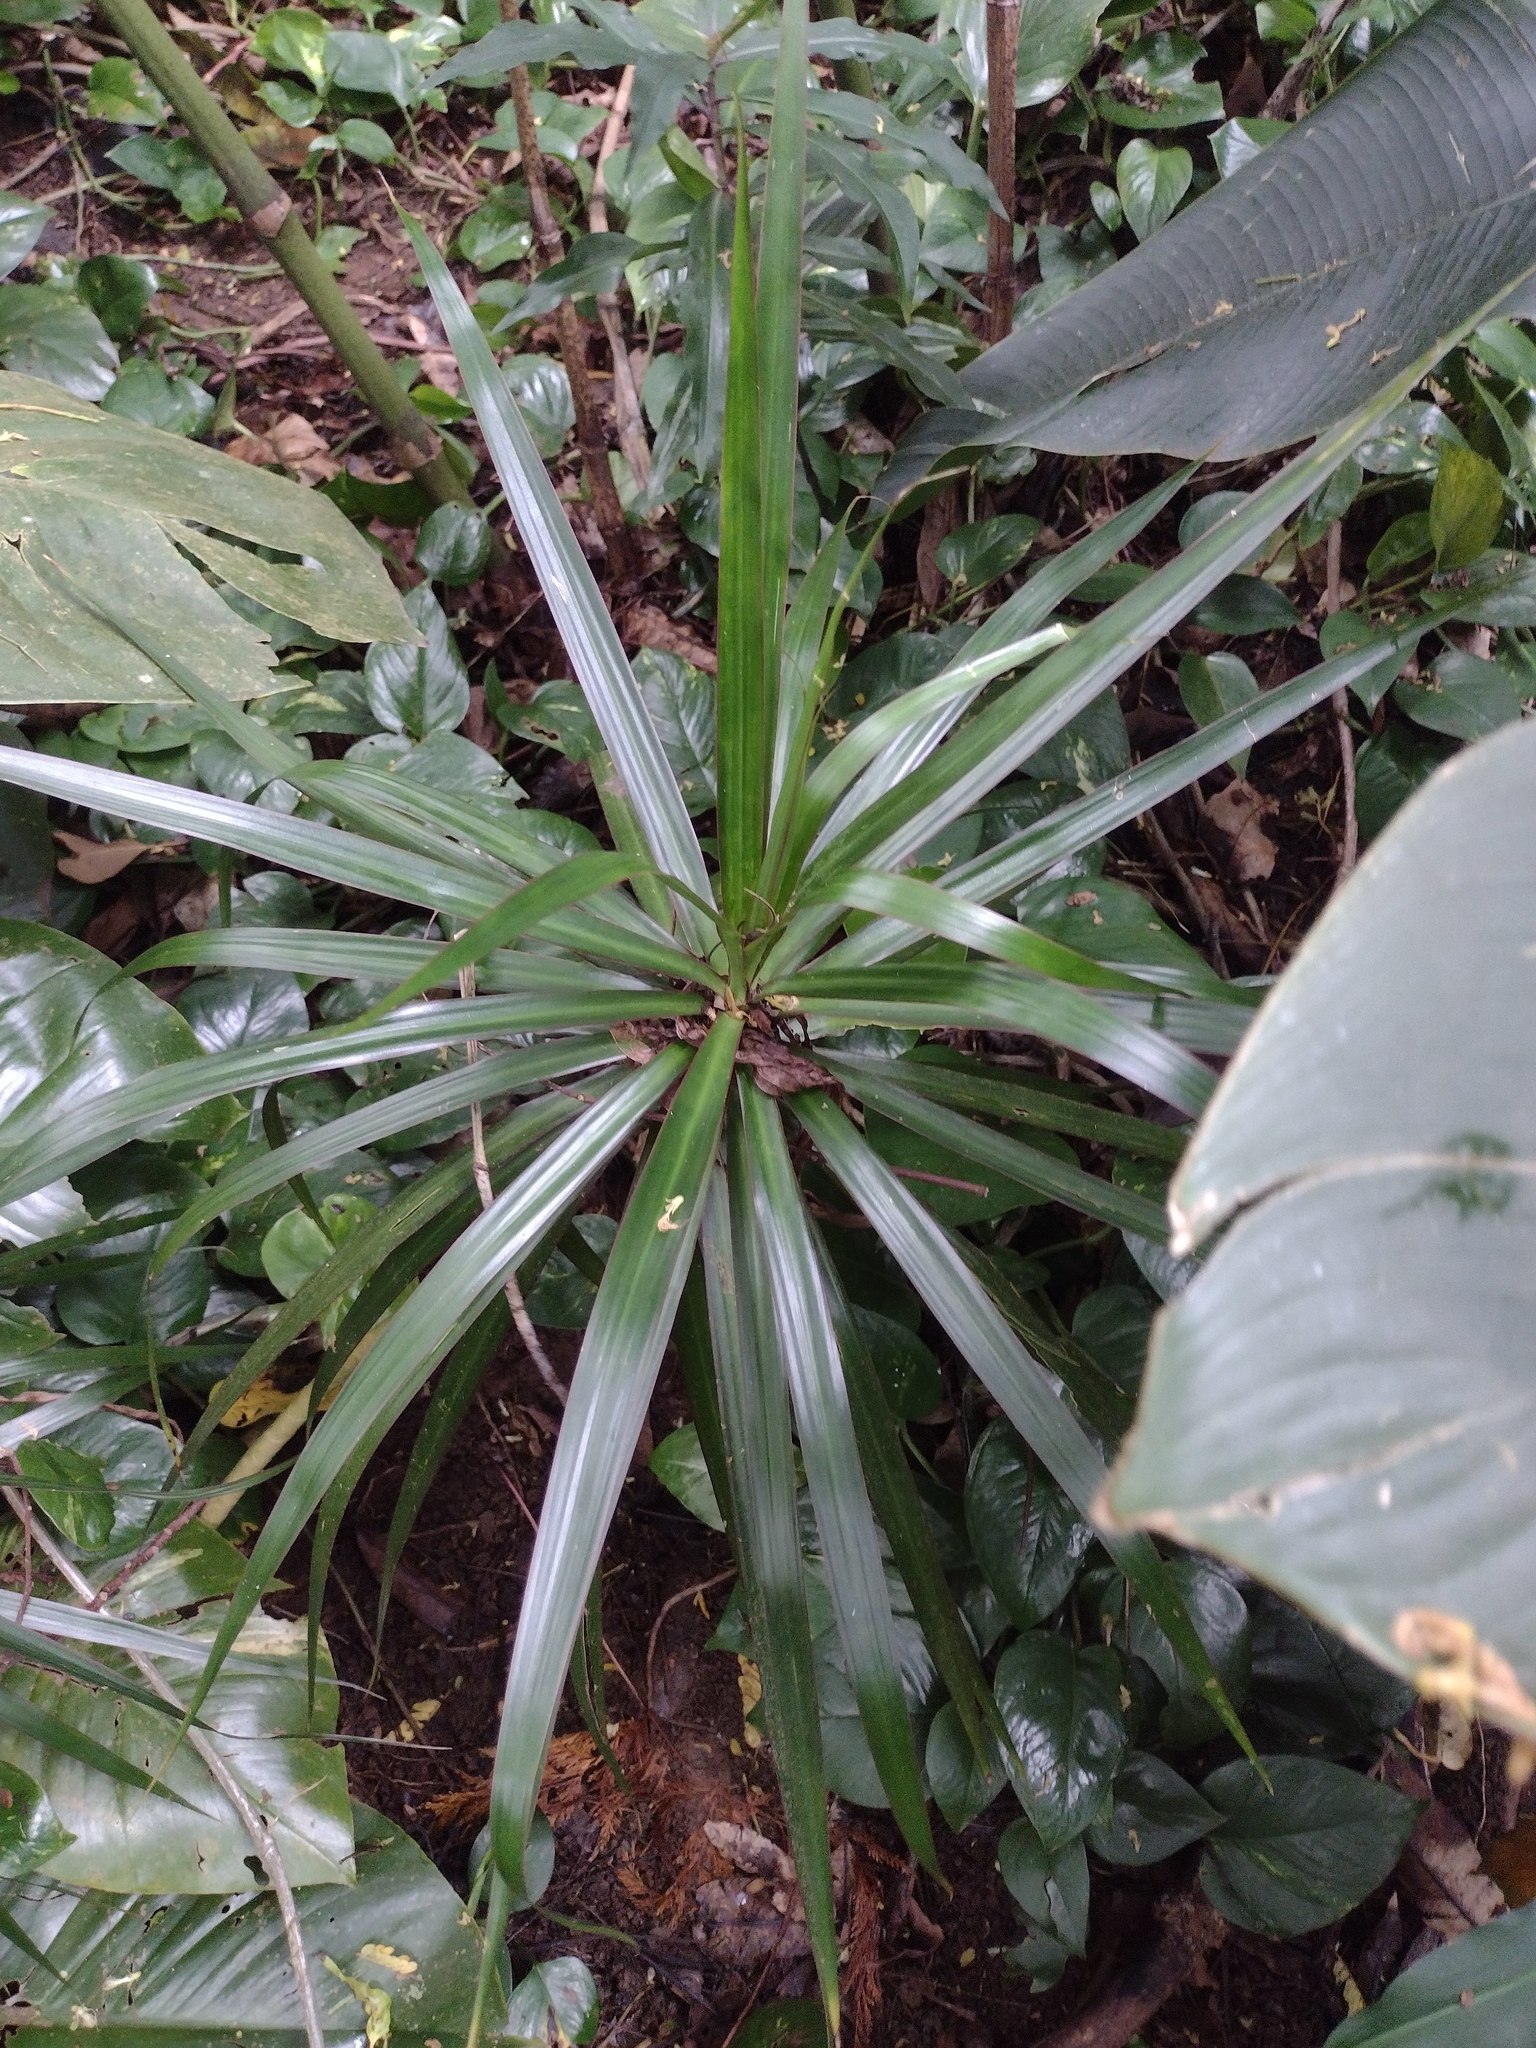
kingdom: Plantae
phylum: Tracheophyta
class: Liliopsida
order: Asparagales
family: Asparagaceae
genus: Dracaena
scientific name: Dracaena reflexa
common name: Song-of-india
